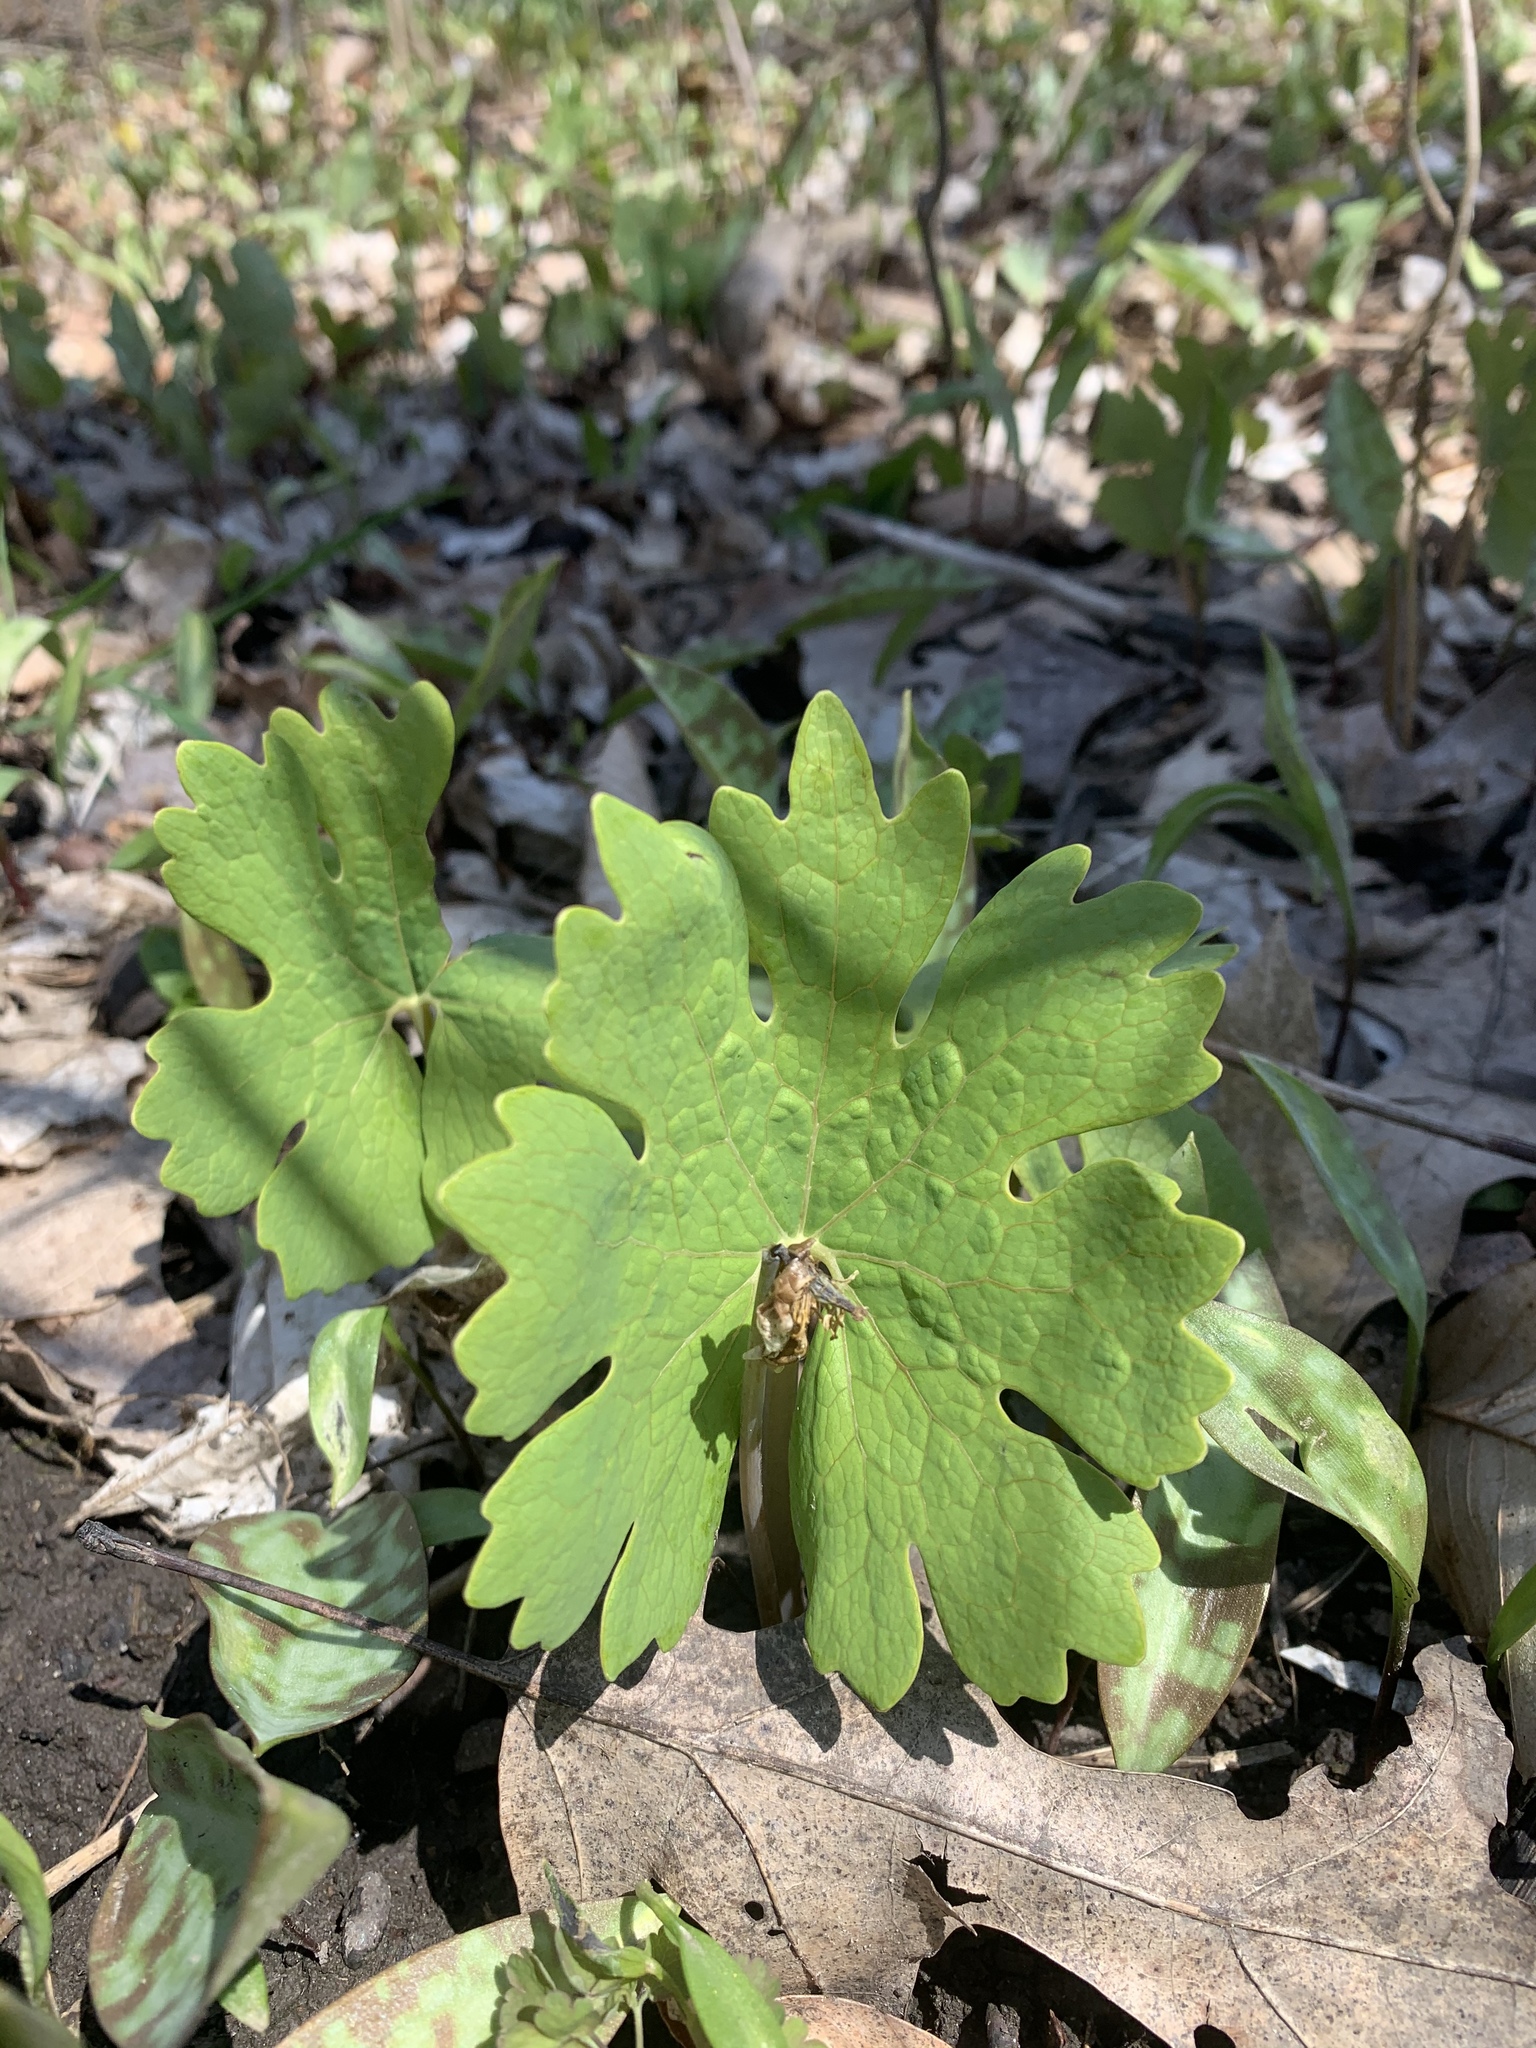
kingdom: Plantae
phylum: Tracheophyta
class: Magnoliopsida
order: Ranunculales
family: Papaveraceae
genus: Sanguinaria
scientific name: Sanguinaria canadensis
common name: Bloodroot
